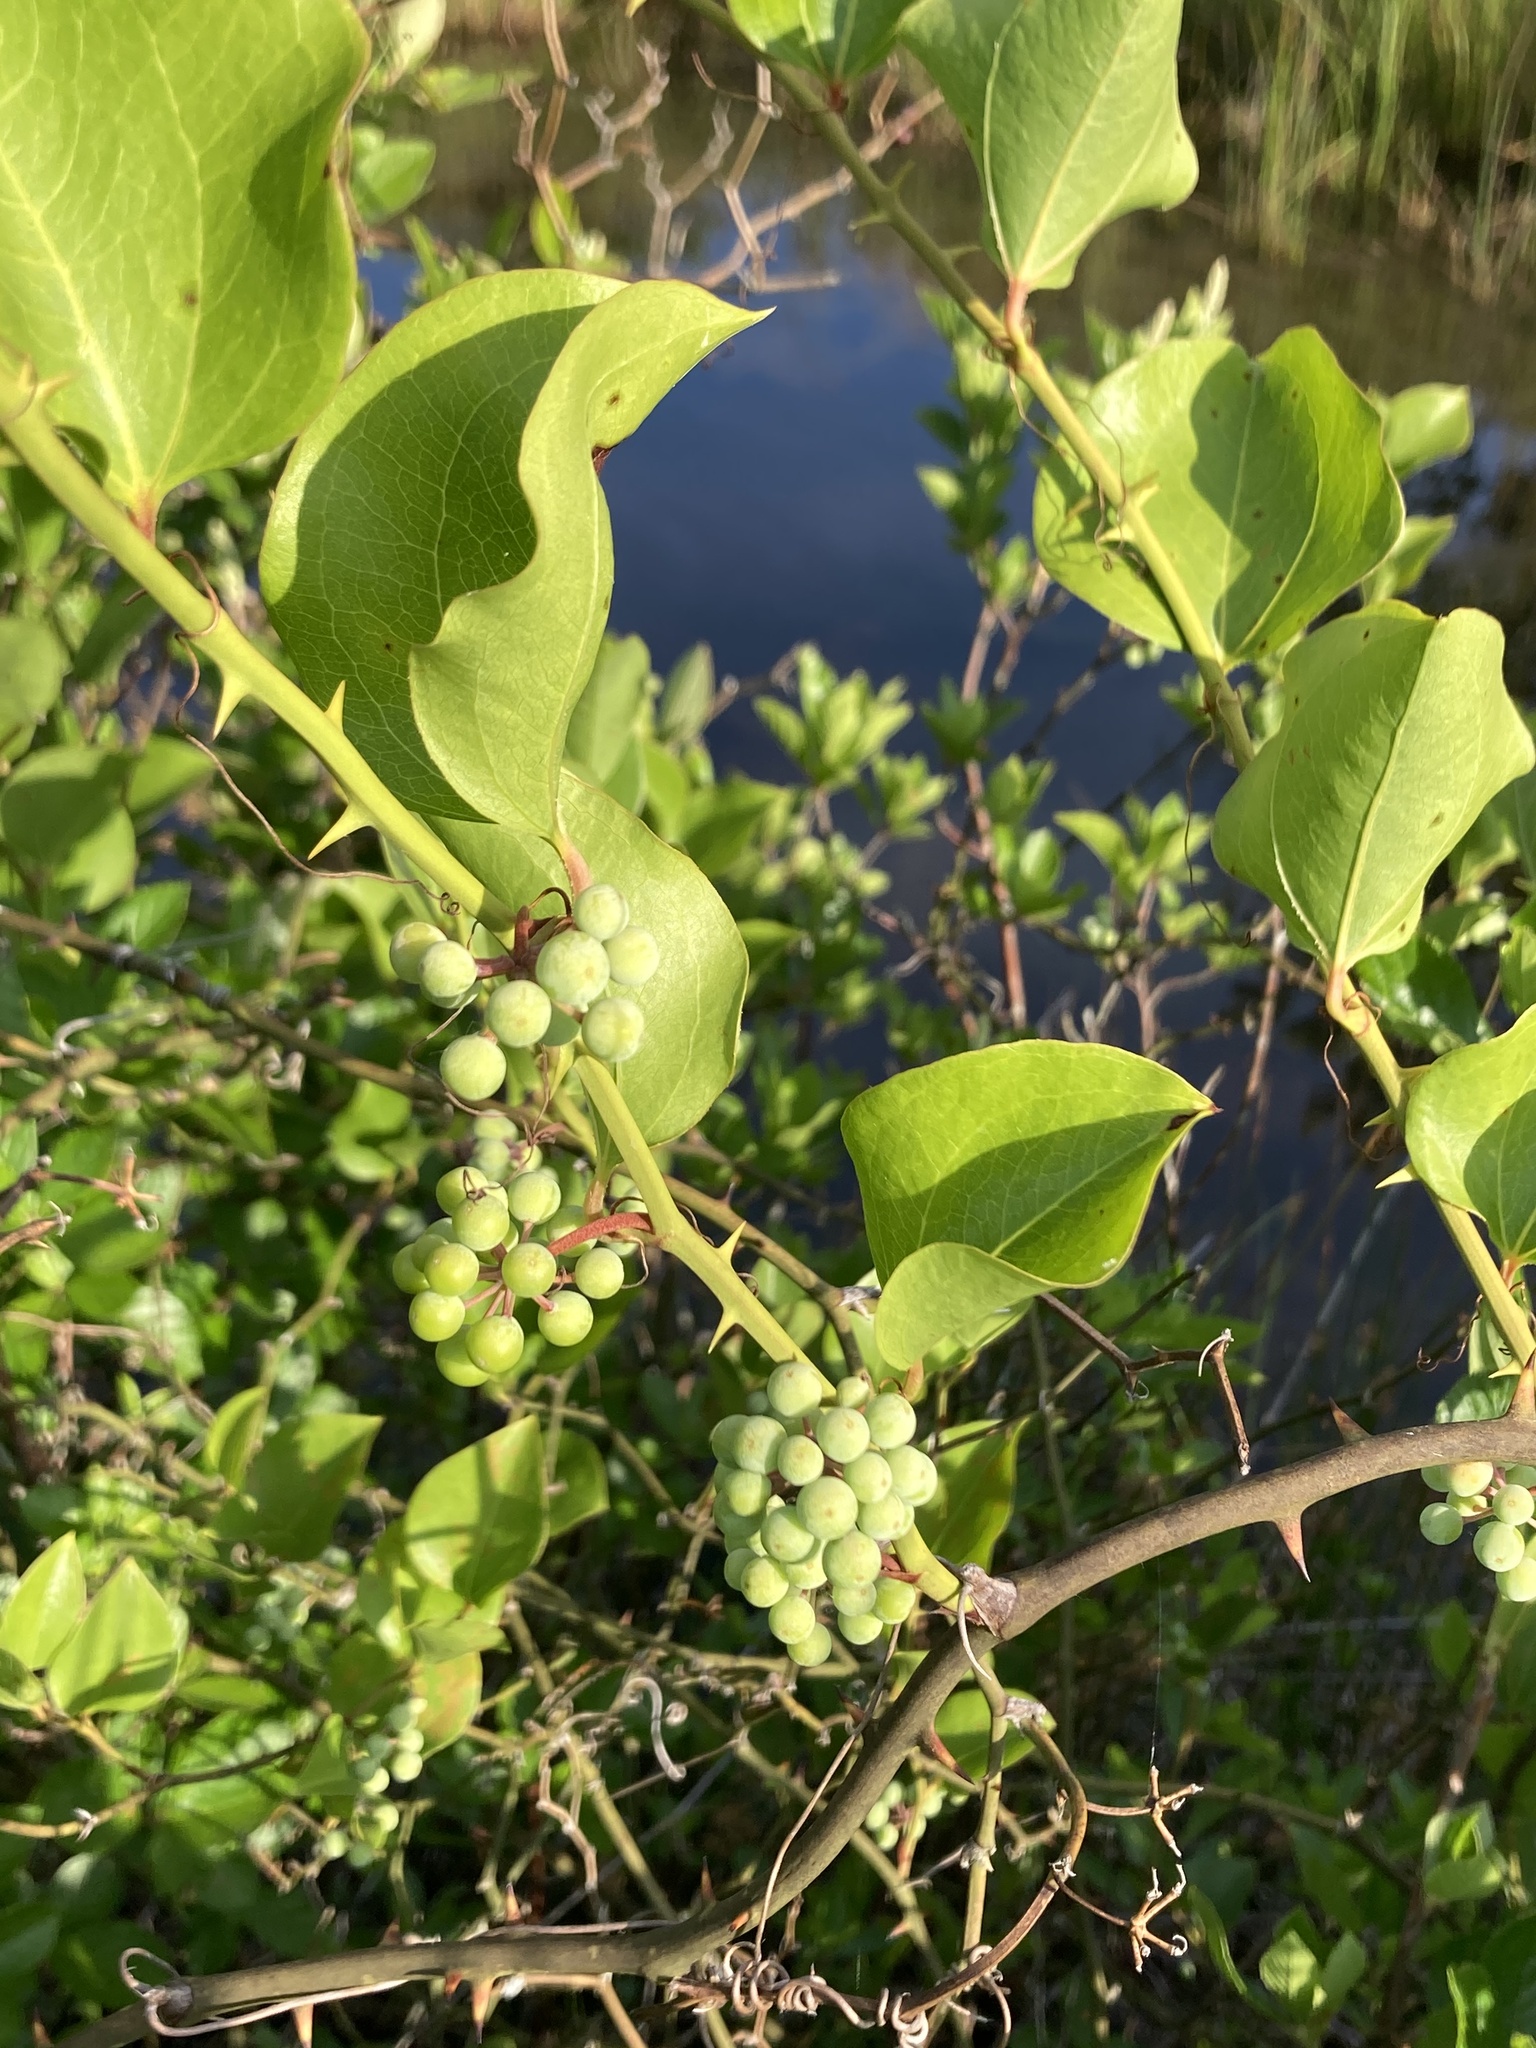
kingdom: Plantae
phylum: Tracheophyta
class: Liliopsida
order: Liliales
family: Smilacaceae
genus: Smilax
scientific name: Smilax rotundifolia
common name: Bullbriar
